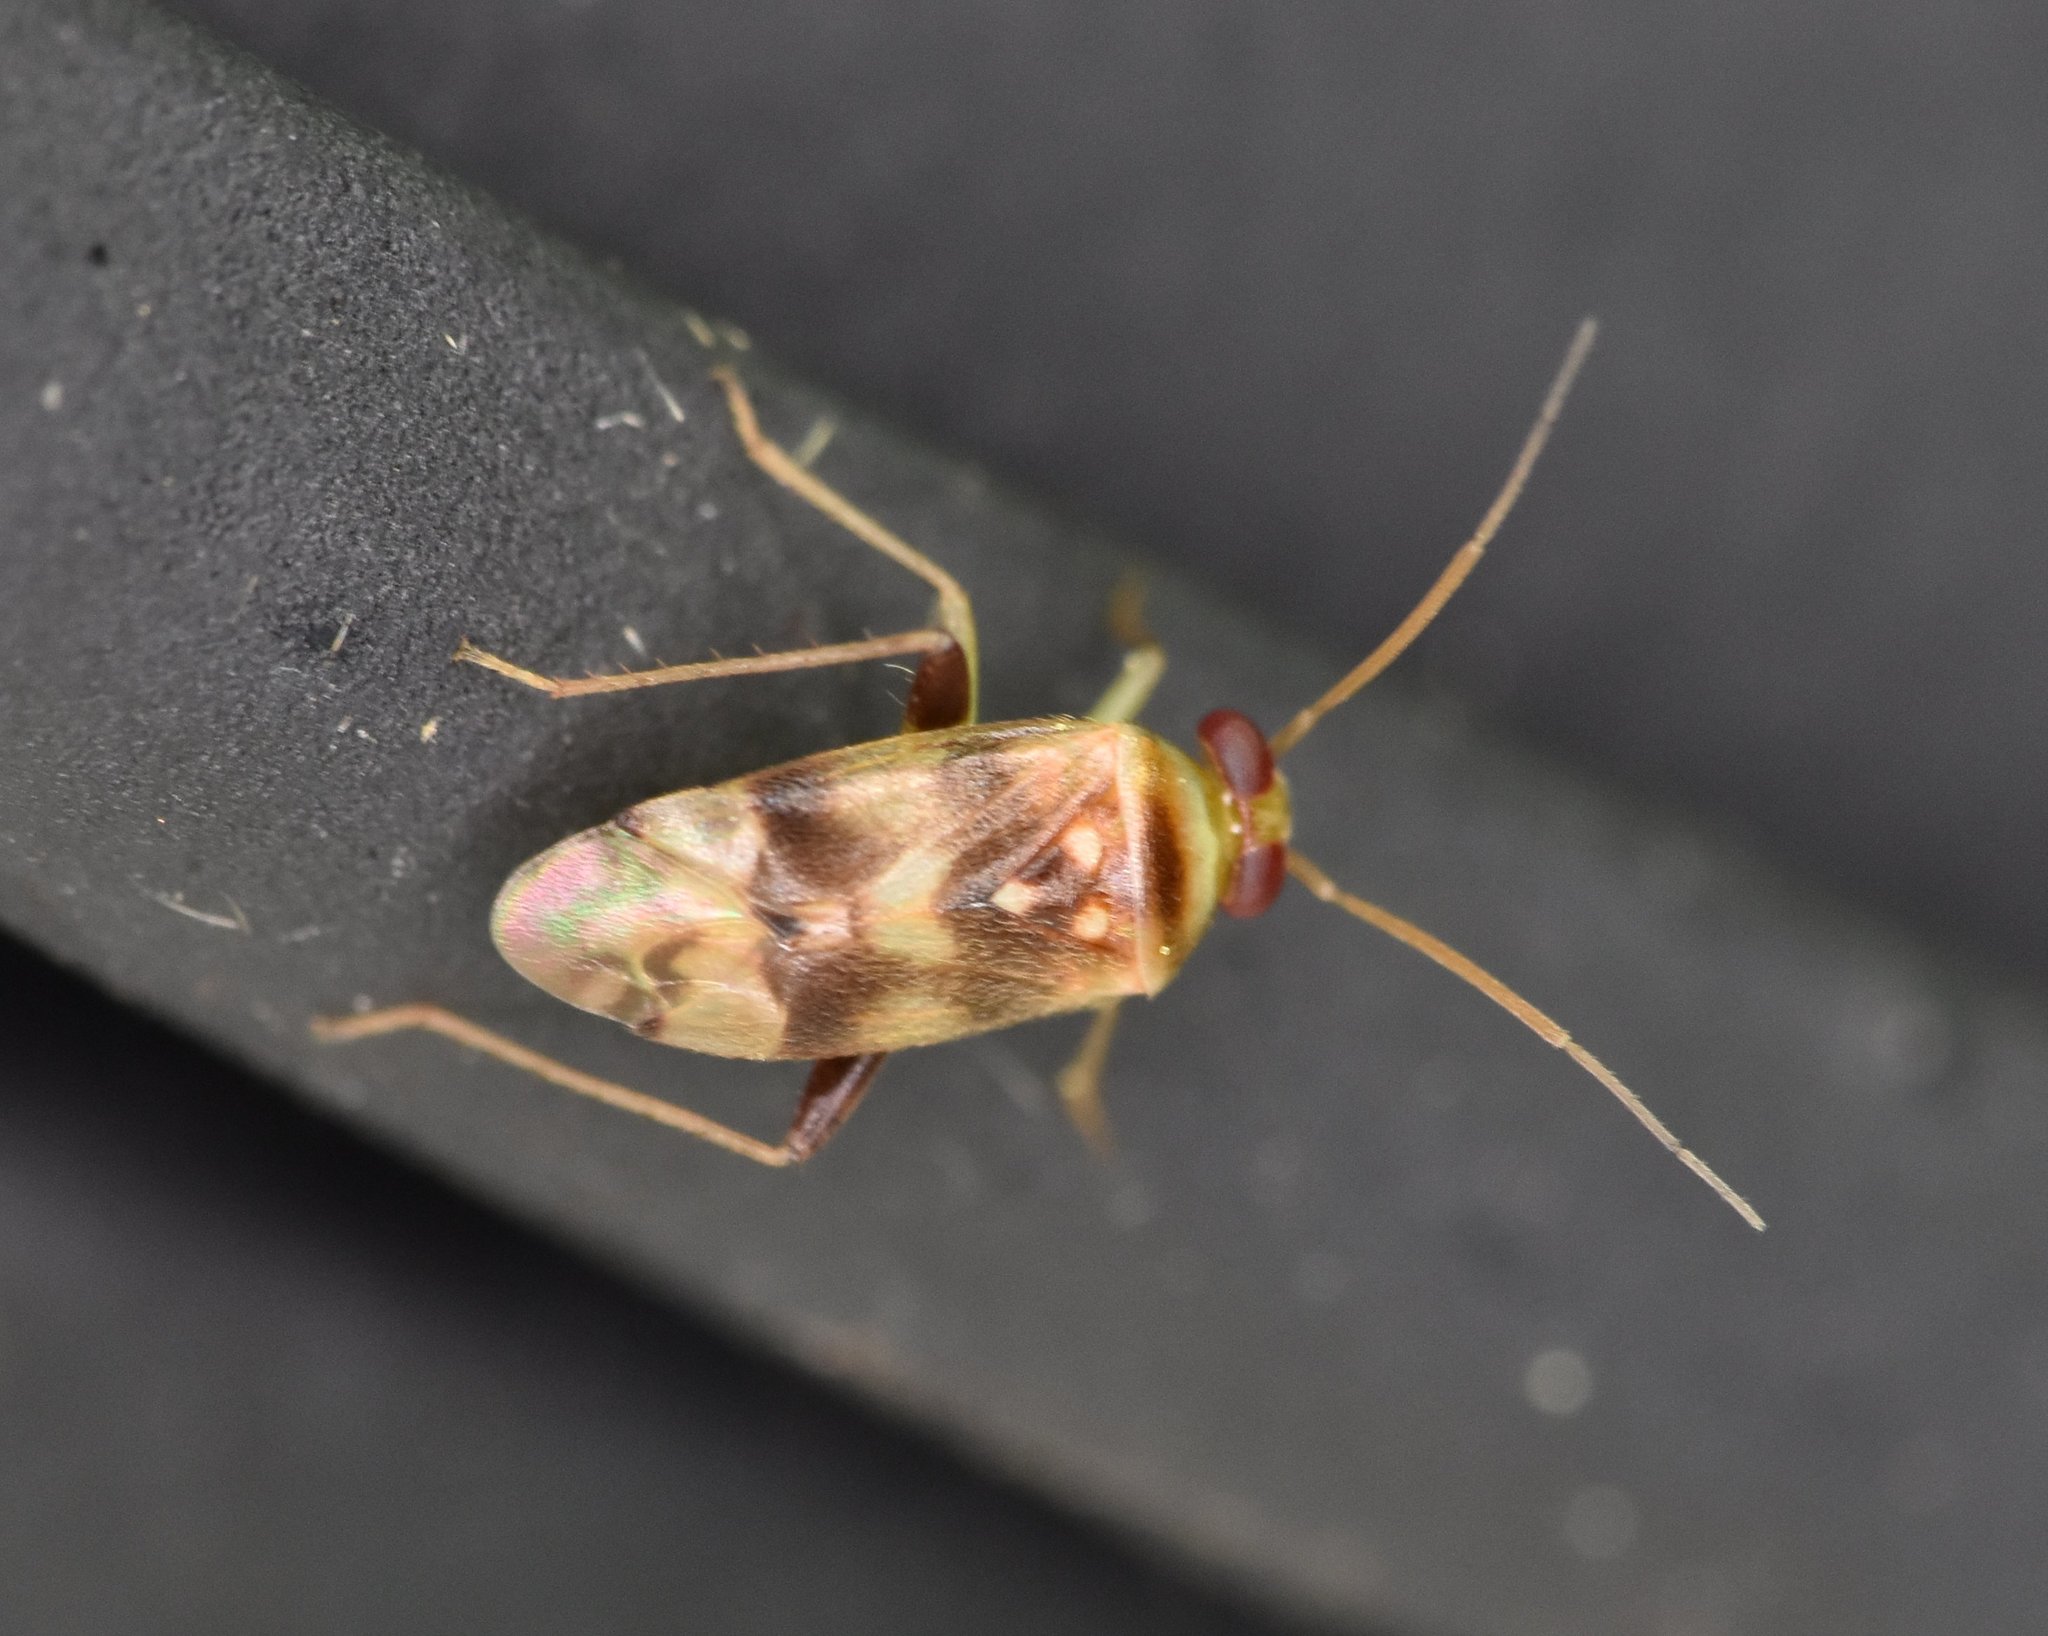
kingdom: Animalia
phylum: Arthropoda
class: Insecta
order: Hemiptera
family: Miridae
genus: Dagbertus
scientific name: Dagbertus
